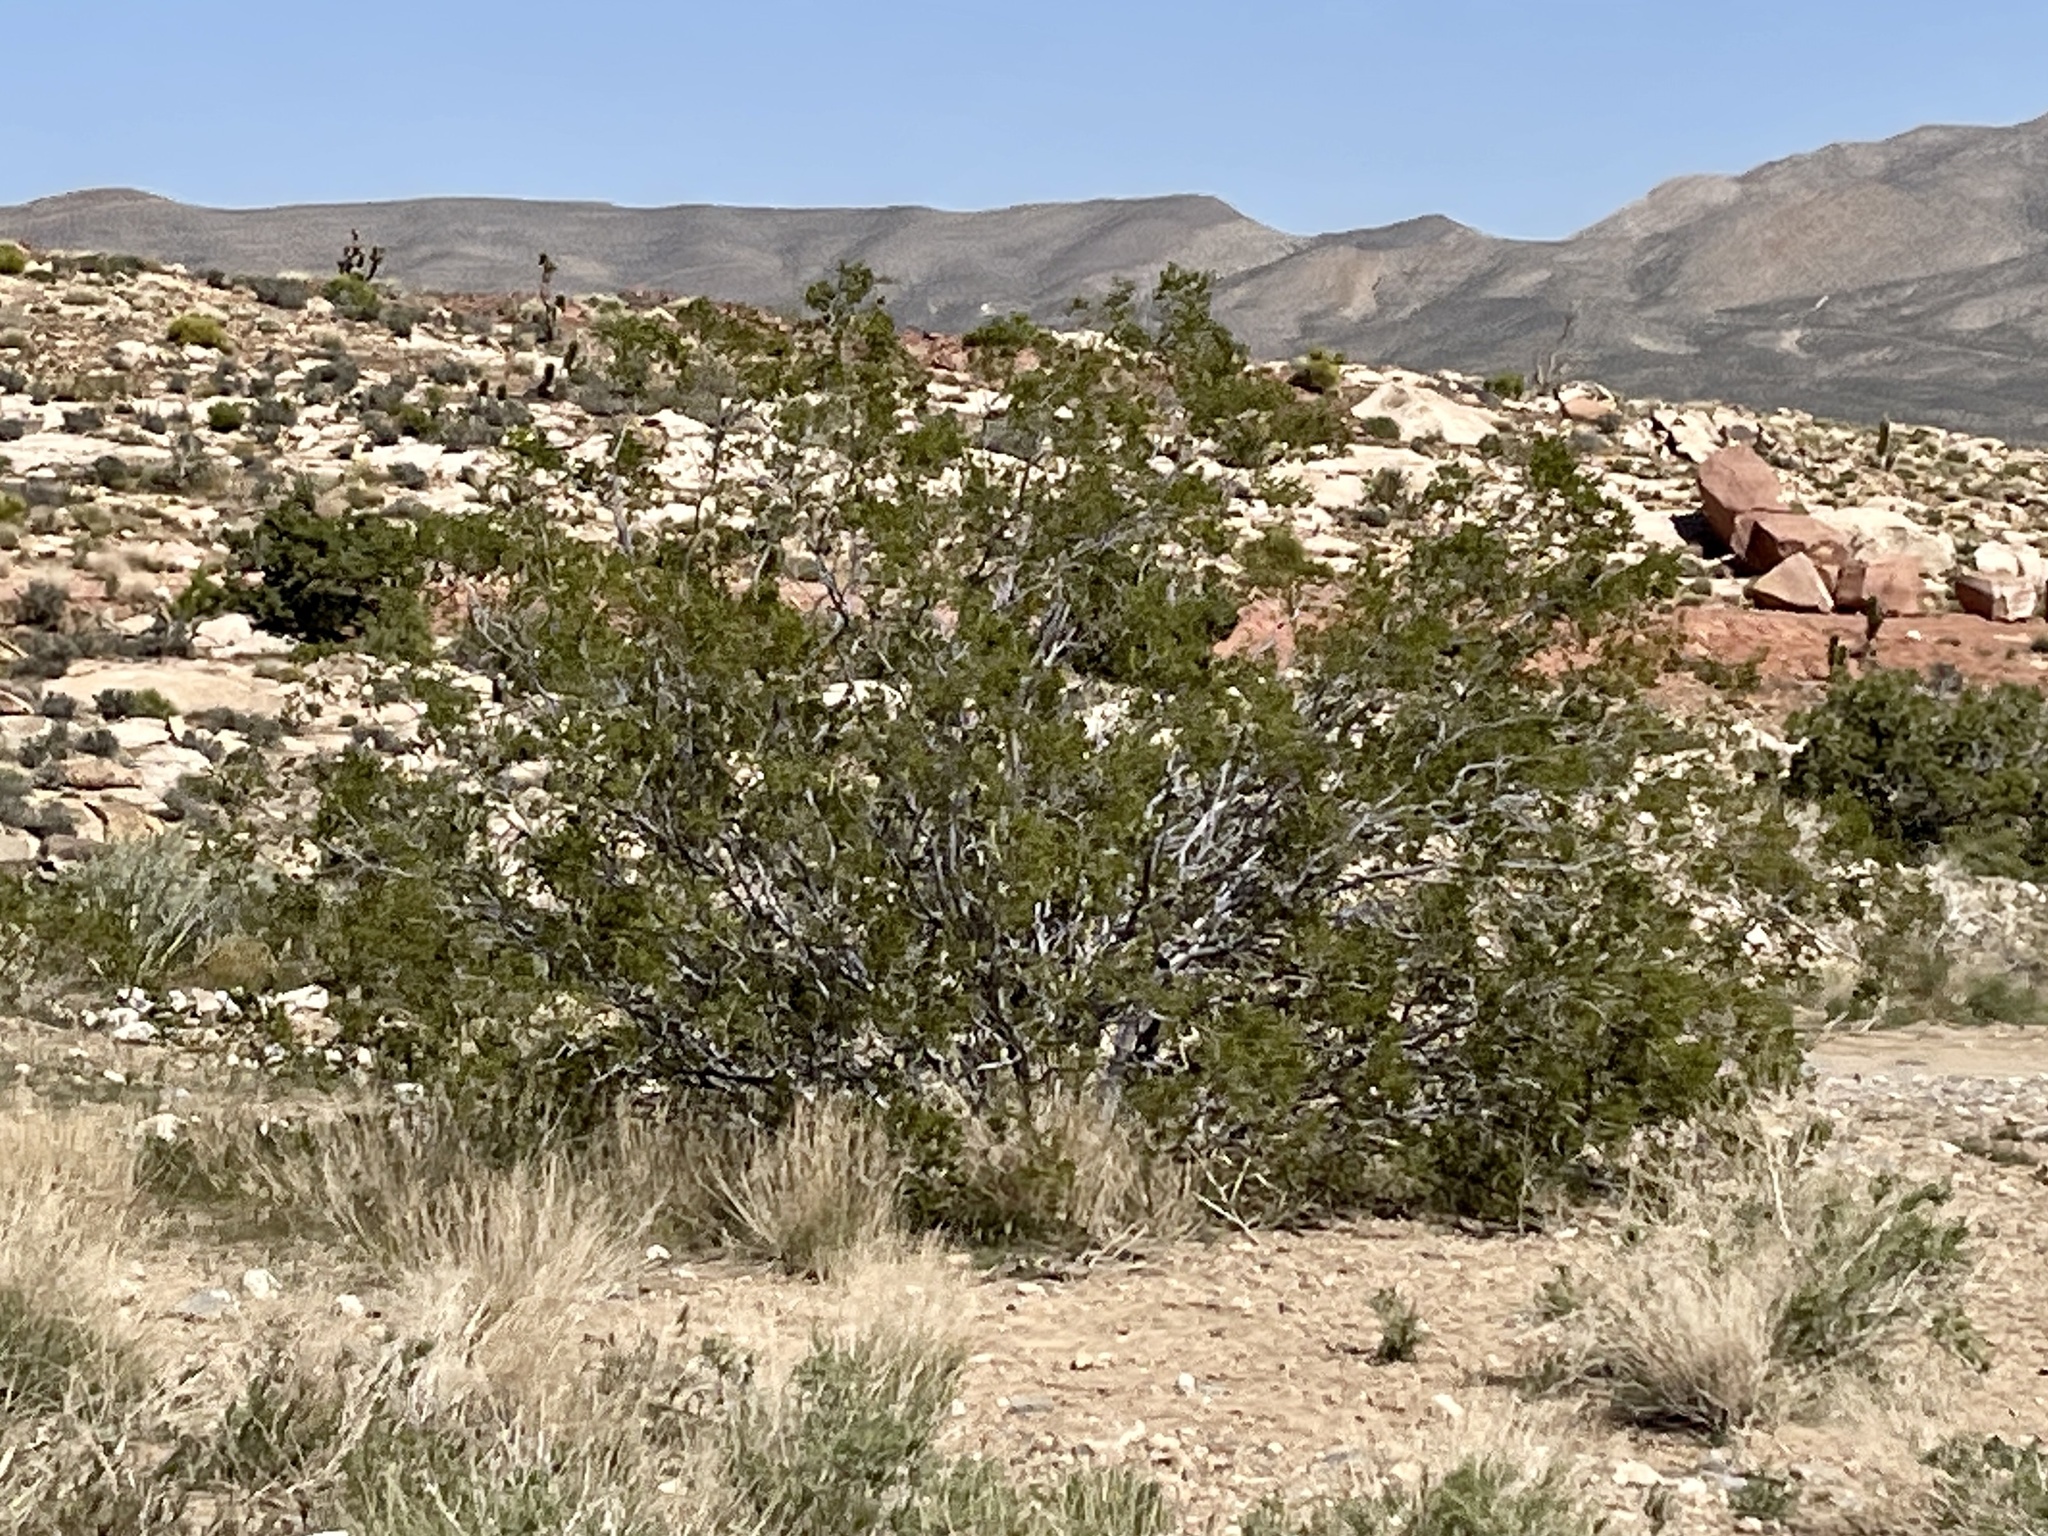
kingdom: Plantae
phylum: Tracheophyta
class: Magnoliopsida
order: Zygophyllales
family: Zygophyllaceae
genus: Larrea
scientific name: Larrea tridentata
